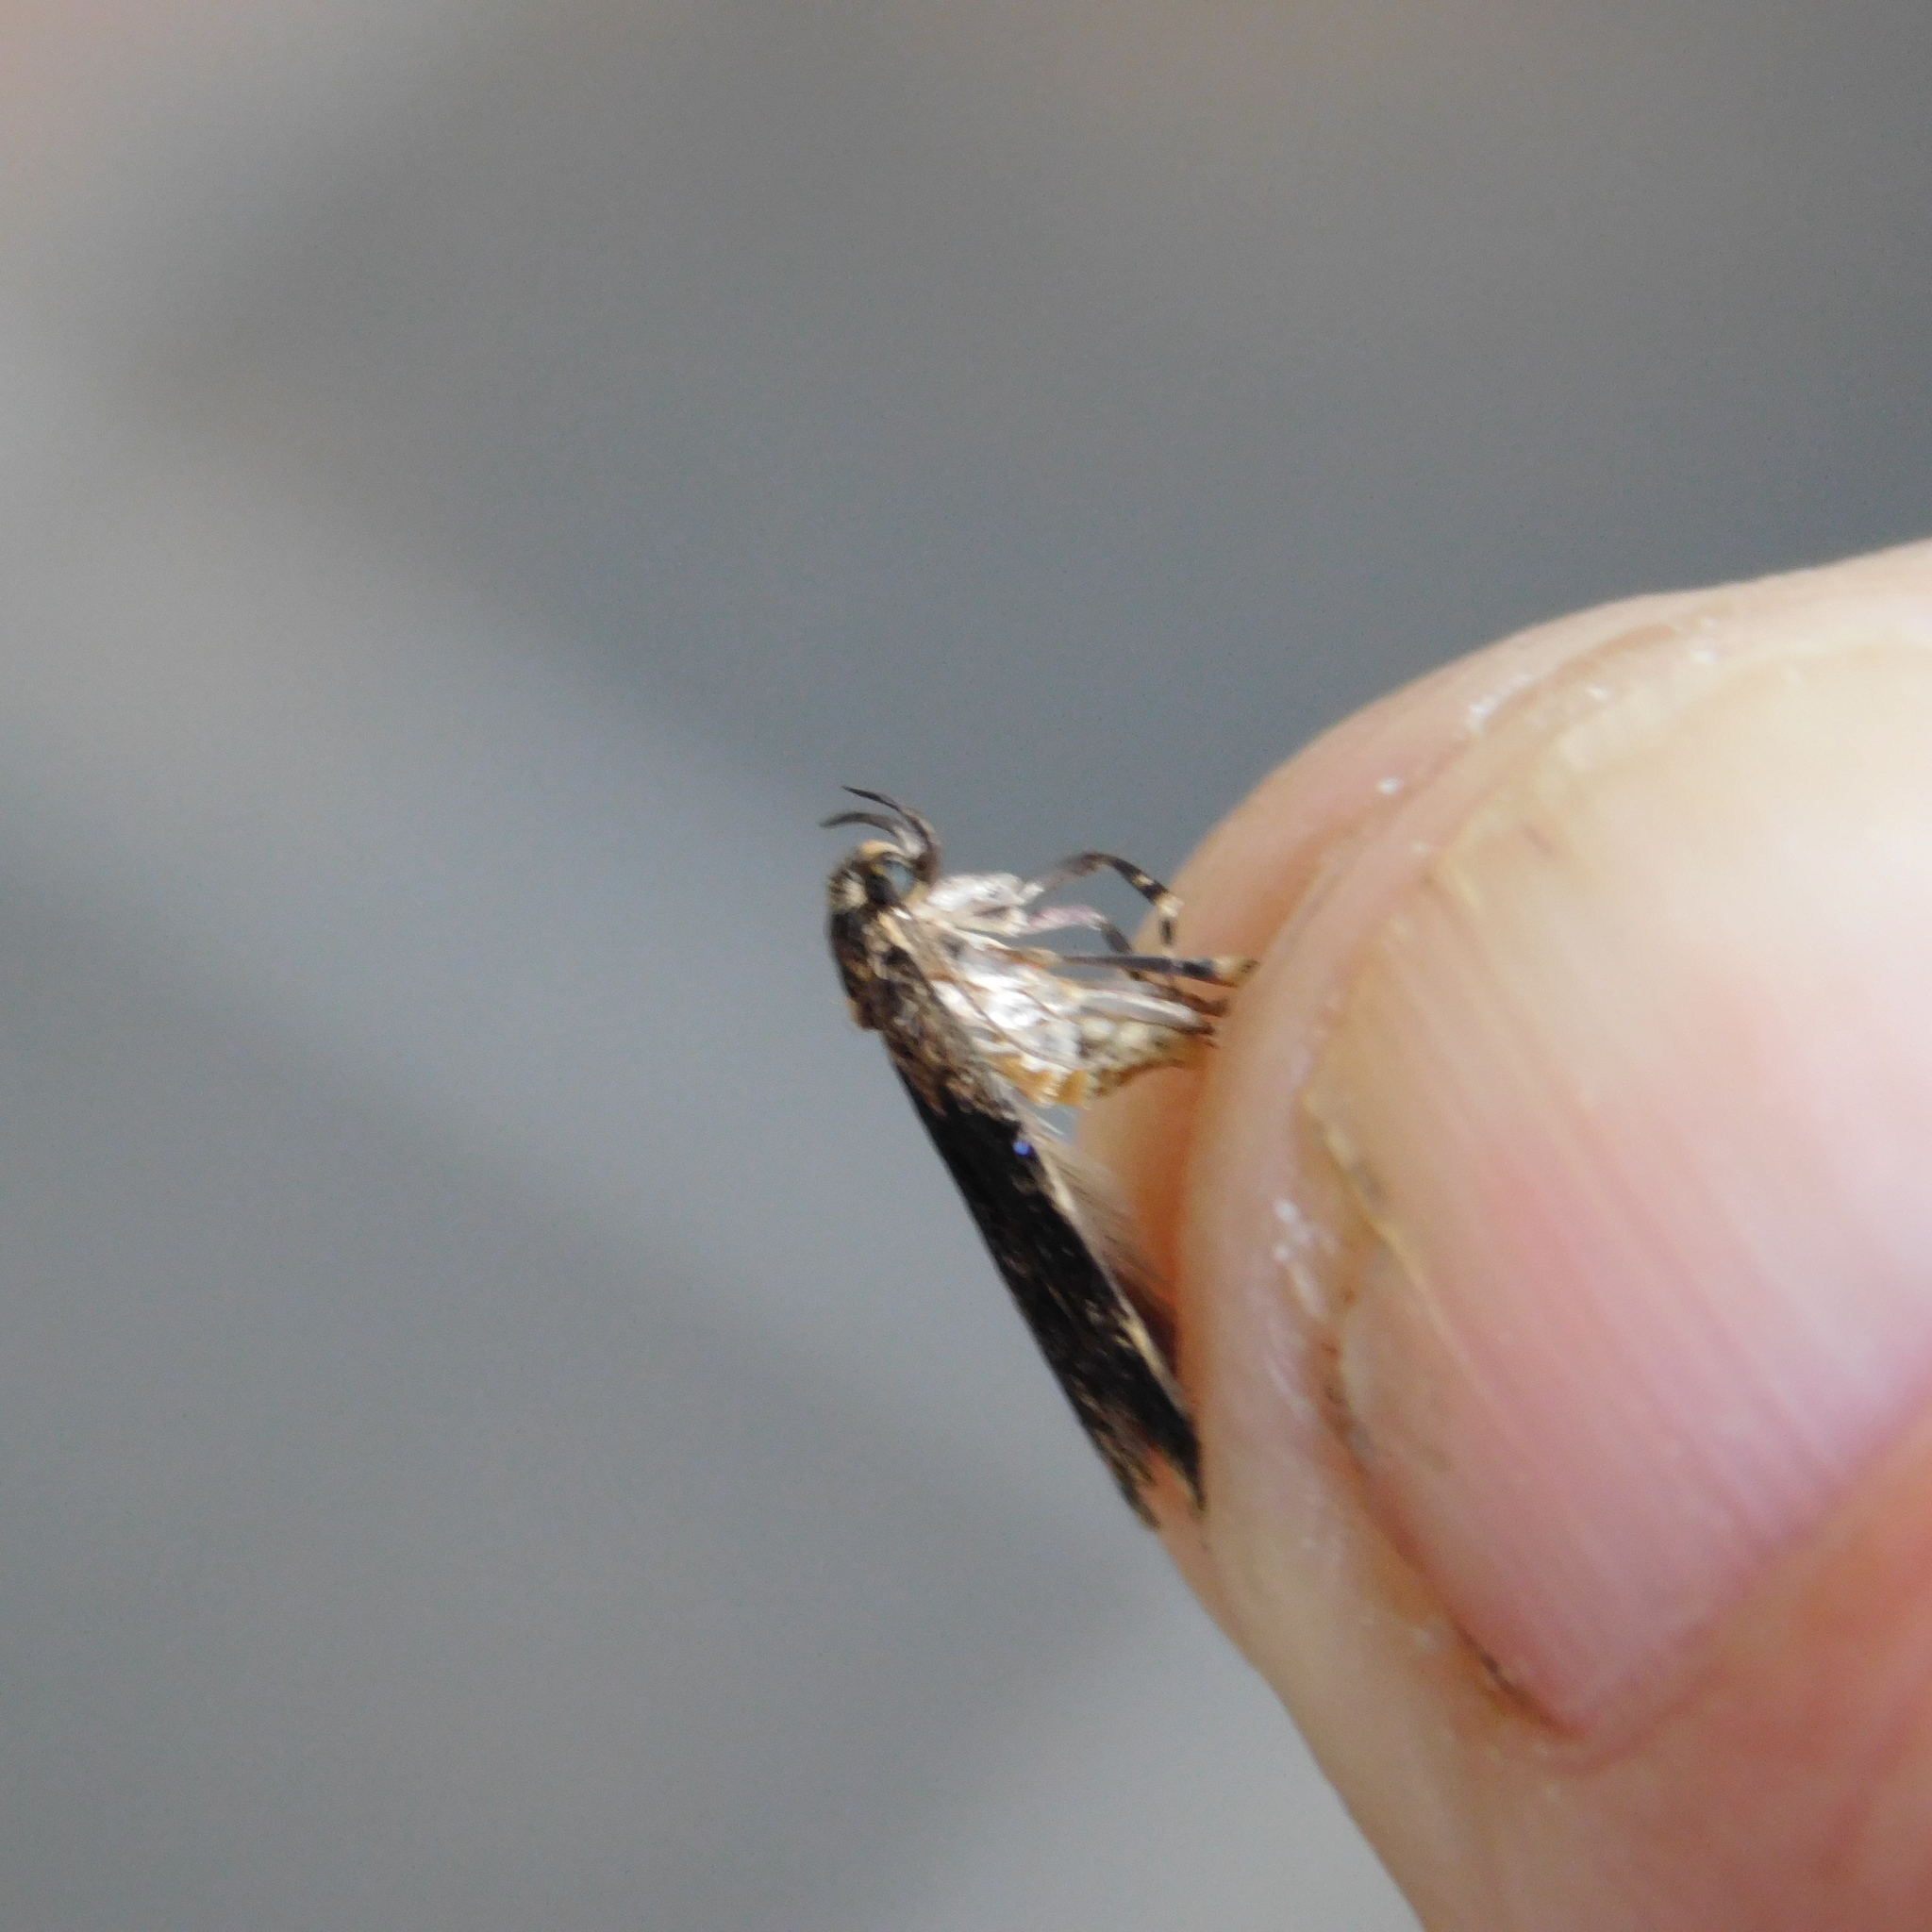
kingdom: Animalia
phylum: Arthropoda
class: Insecta
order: Lepidoptera
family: Oecophoridae
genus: Barea
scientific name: Barea codrella
